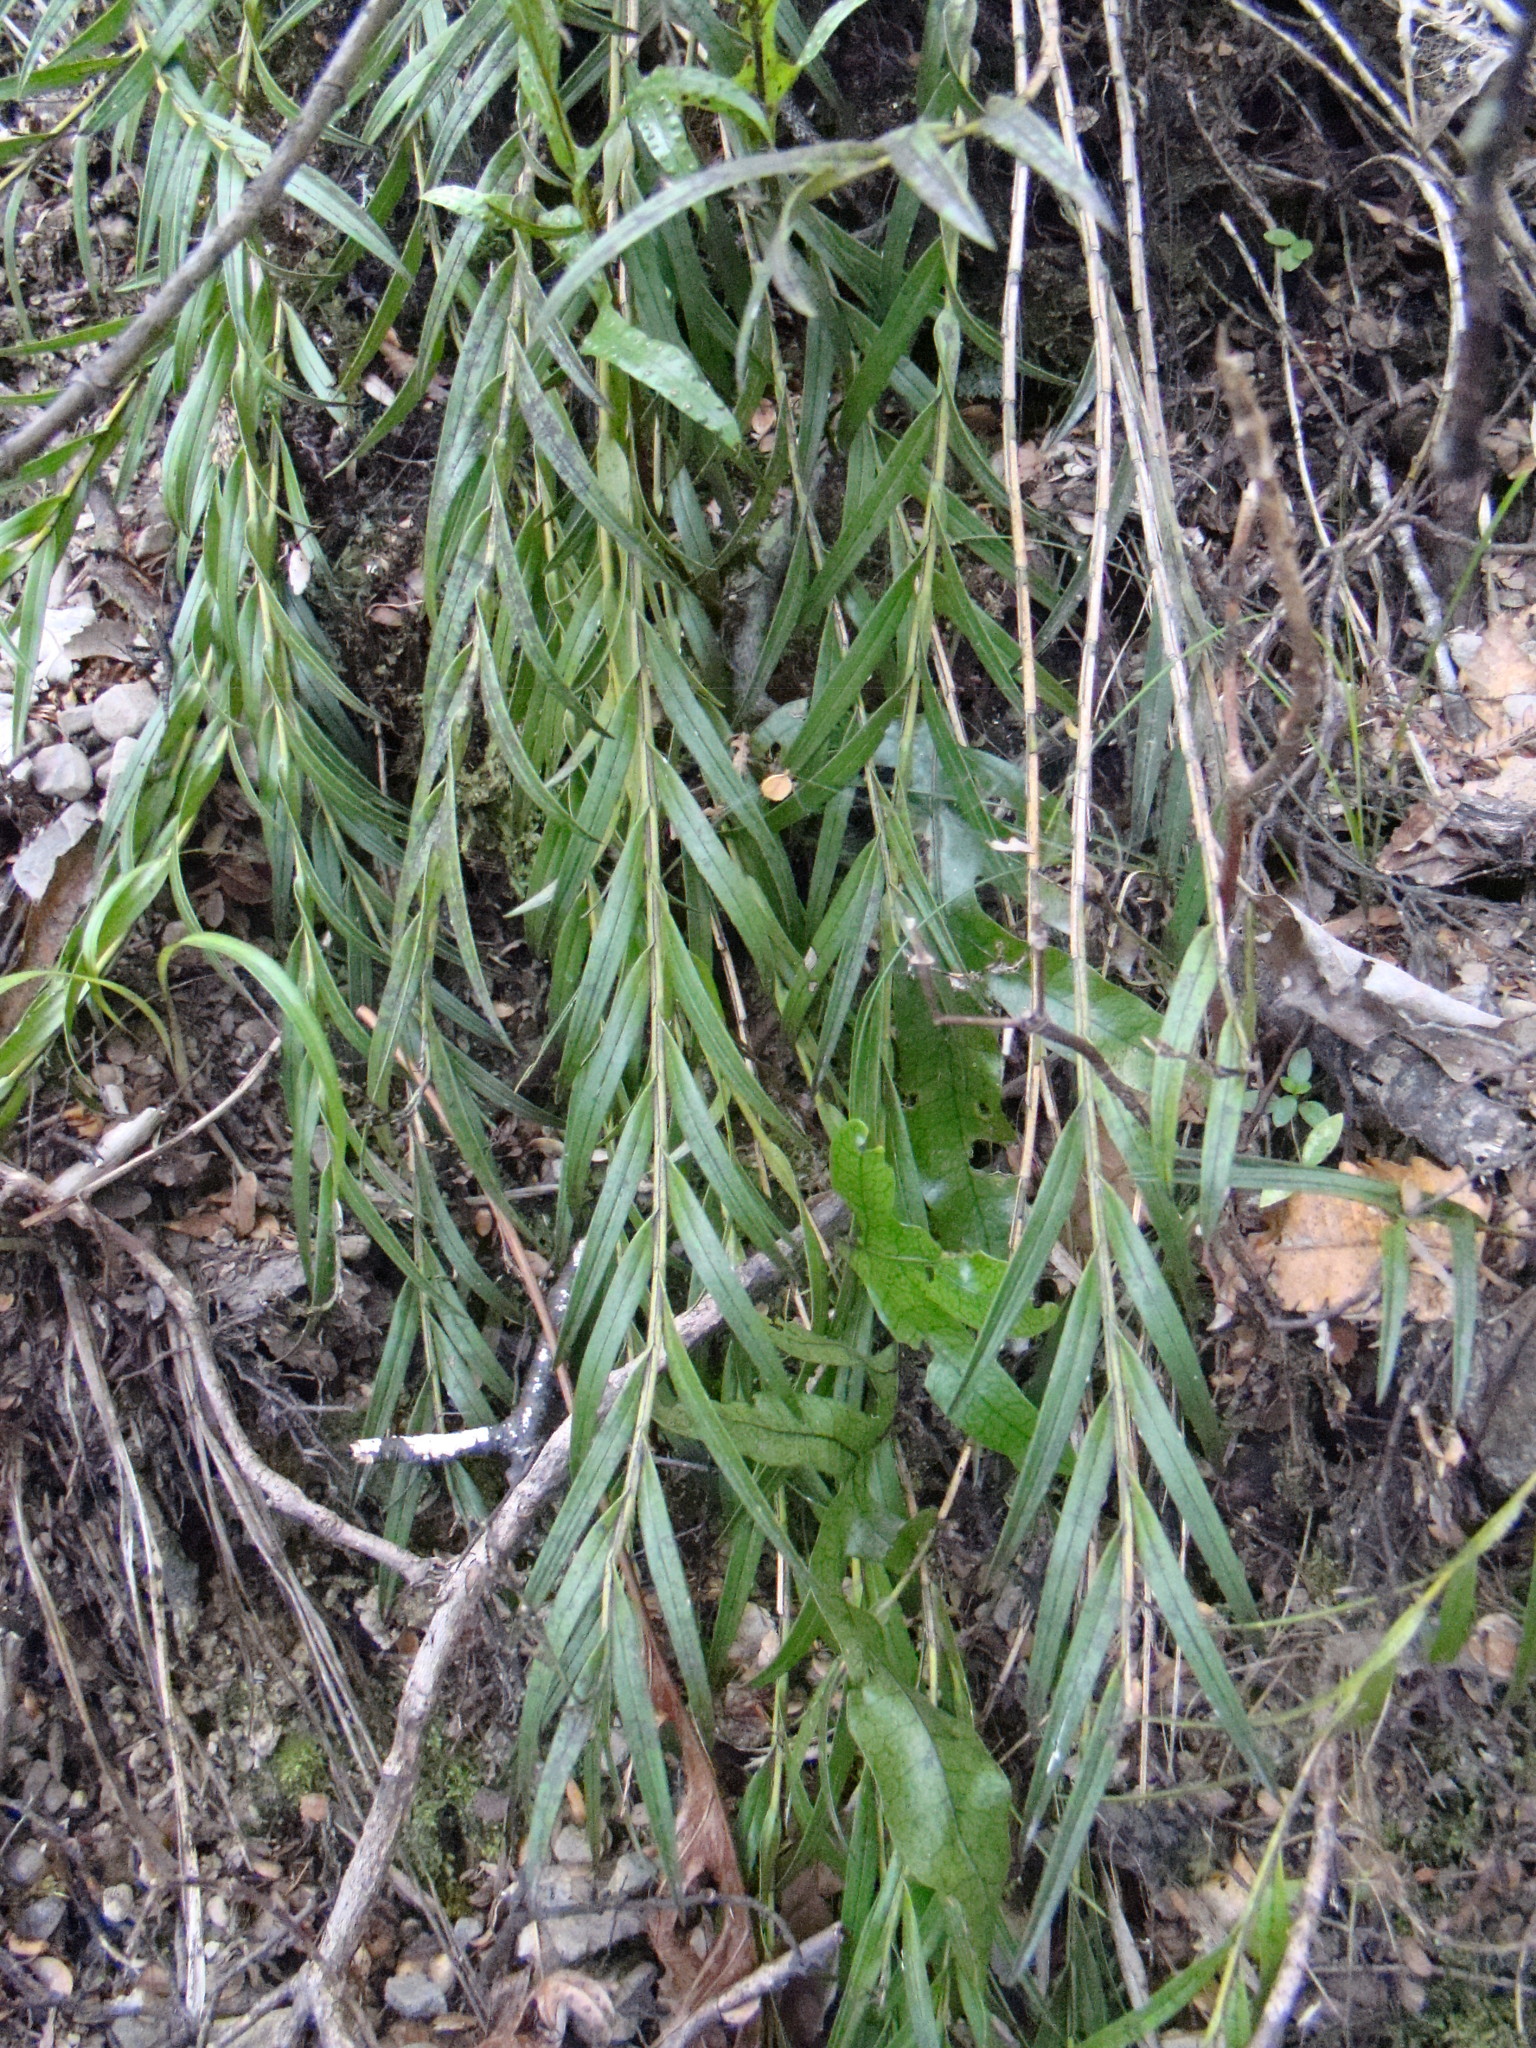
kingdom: Plantae
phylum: Tracheophyta
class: Liliopsida
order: Asparagales
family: Orchidaceae
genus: Earina
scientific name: Earina autumnalis
